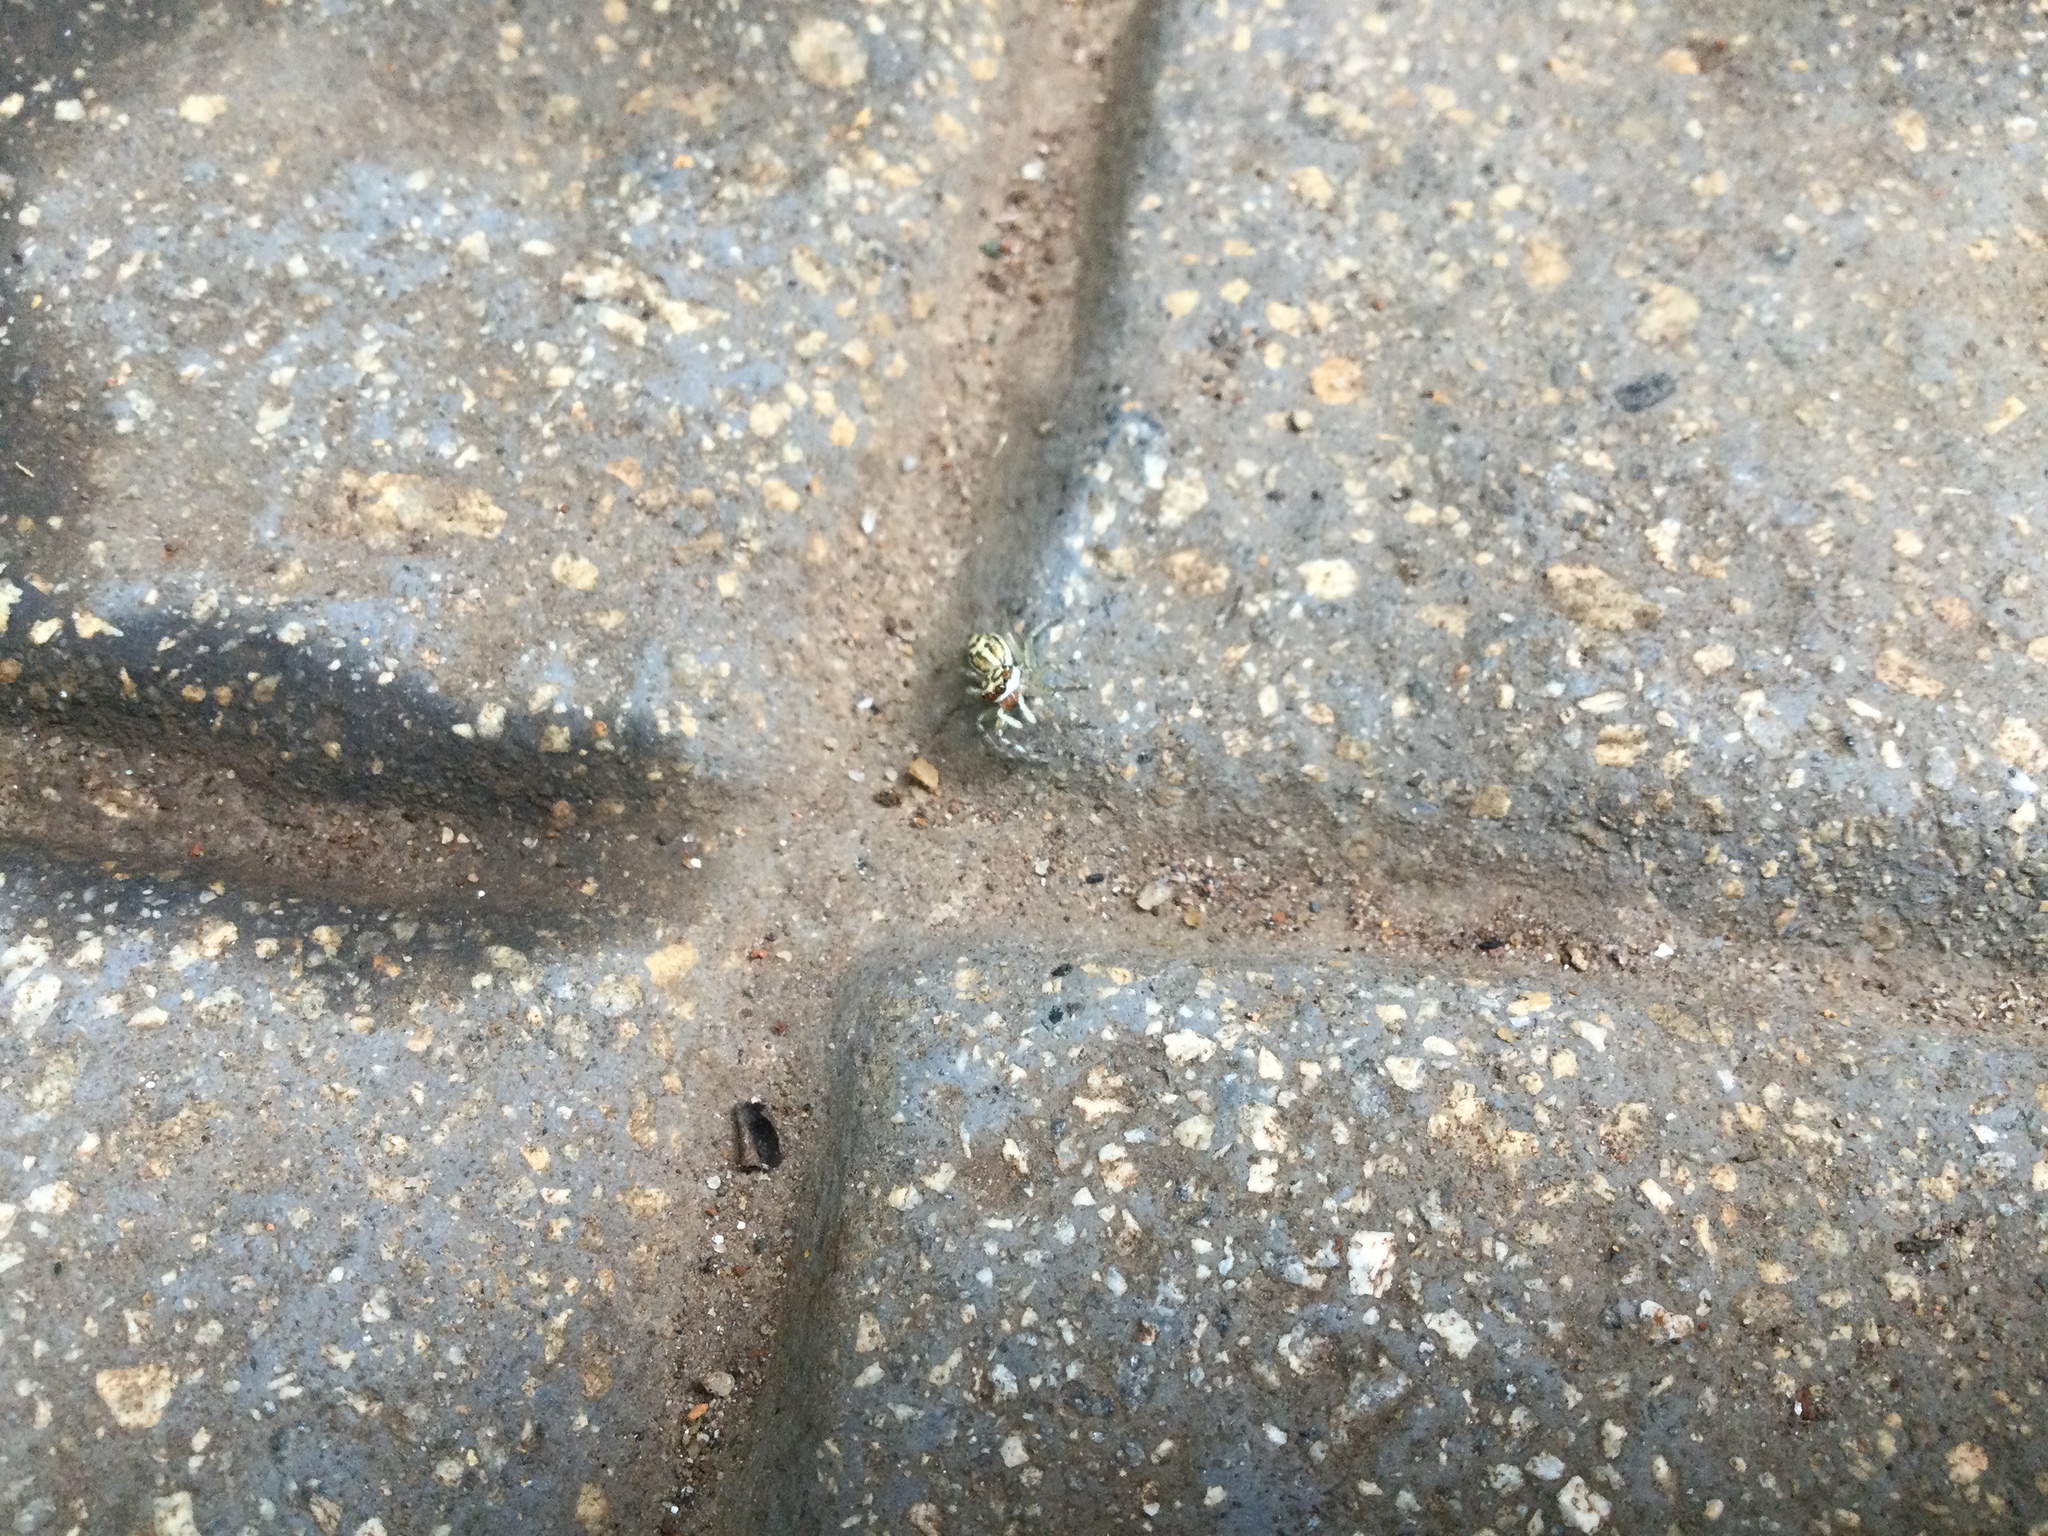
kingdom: Animalia
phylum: Arthropoda
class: Arachnida
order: Araneae
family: Salticidae
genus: Phintelloides
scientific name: Phintelloides versicolor
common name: Jumping spider
